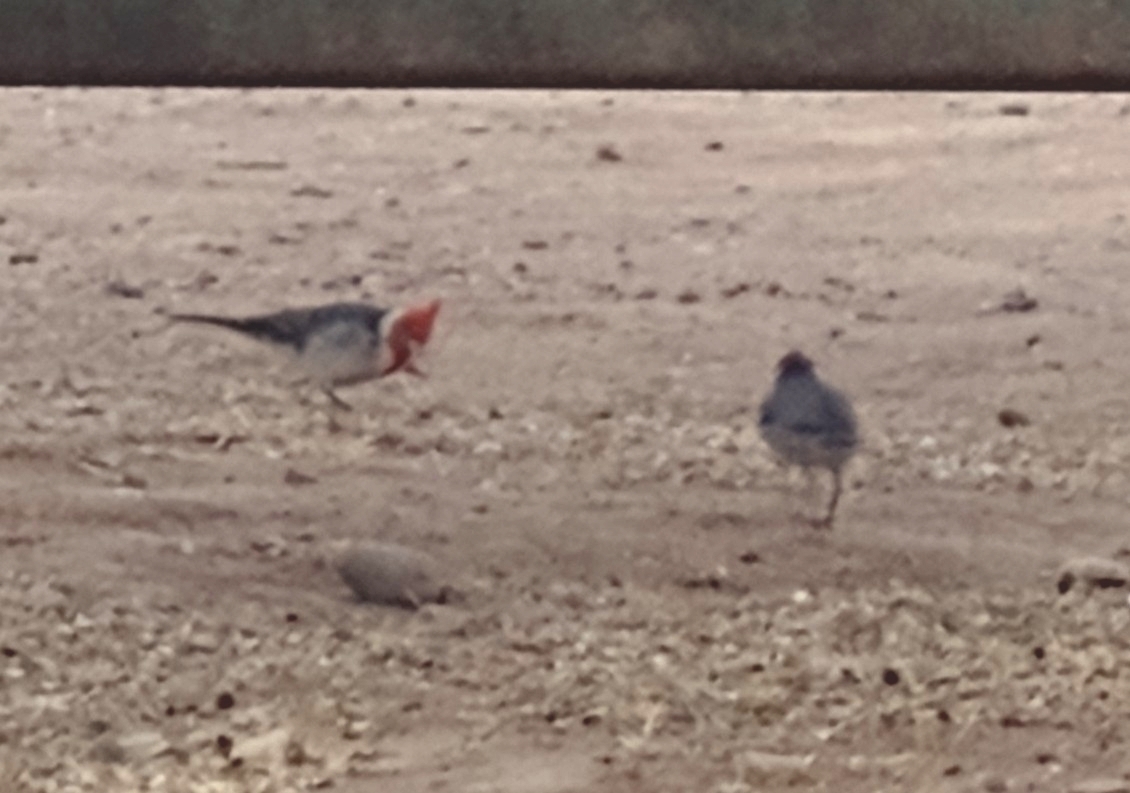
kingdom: Animalia
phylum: Chordata
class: Aves
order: Passeriformes
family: Thraupidae
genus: Paroaria
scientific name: Paroaria coronata
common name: Red-crested cardinal
